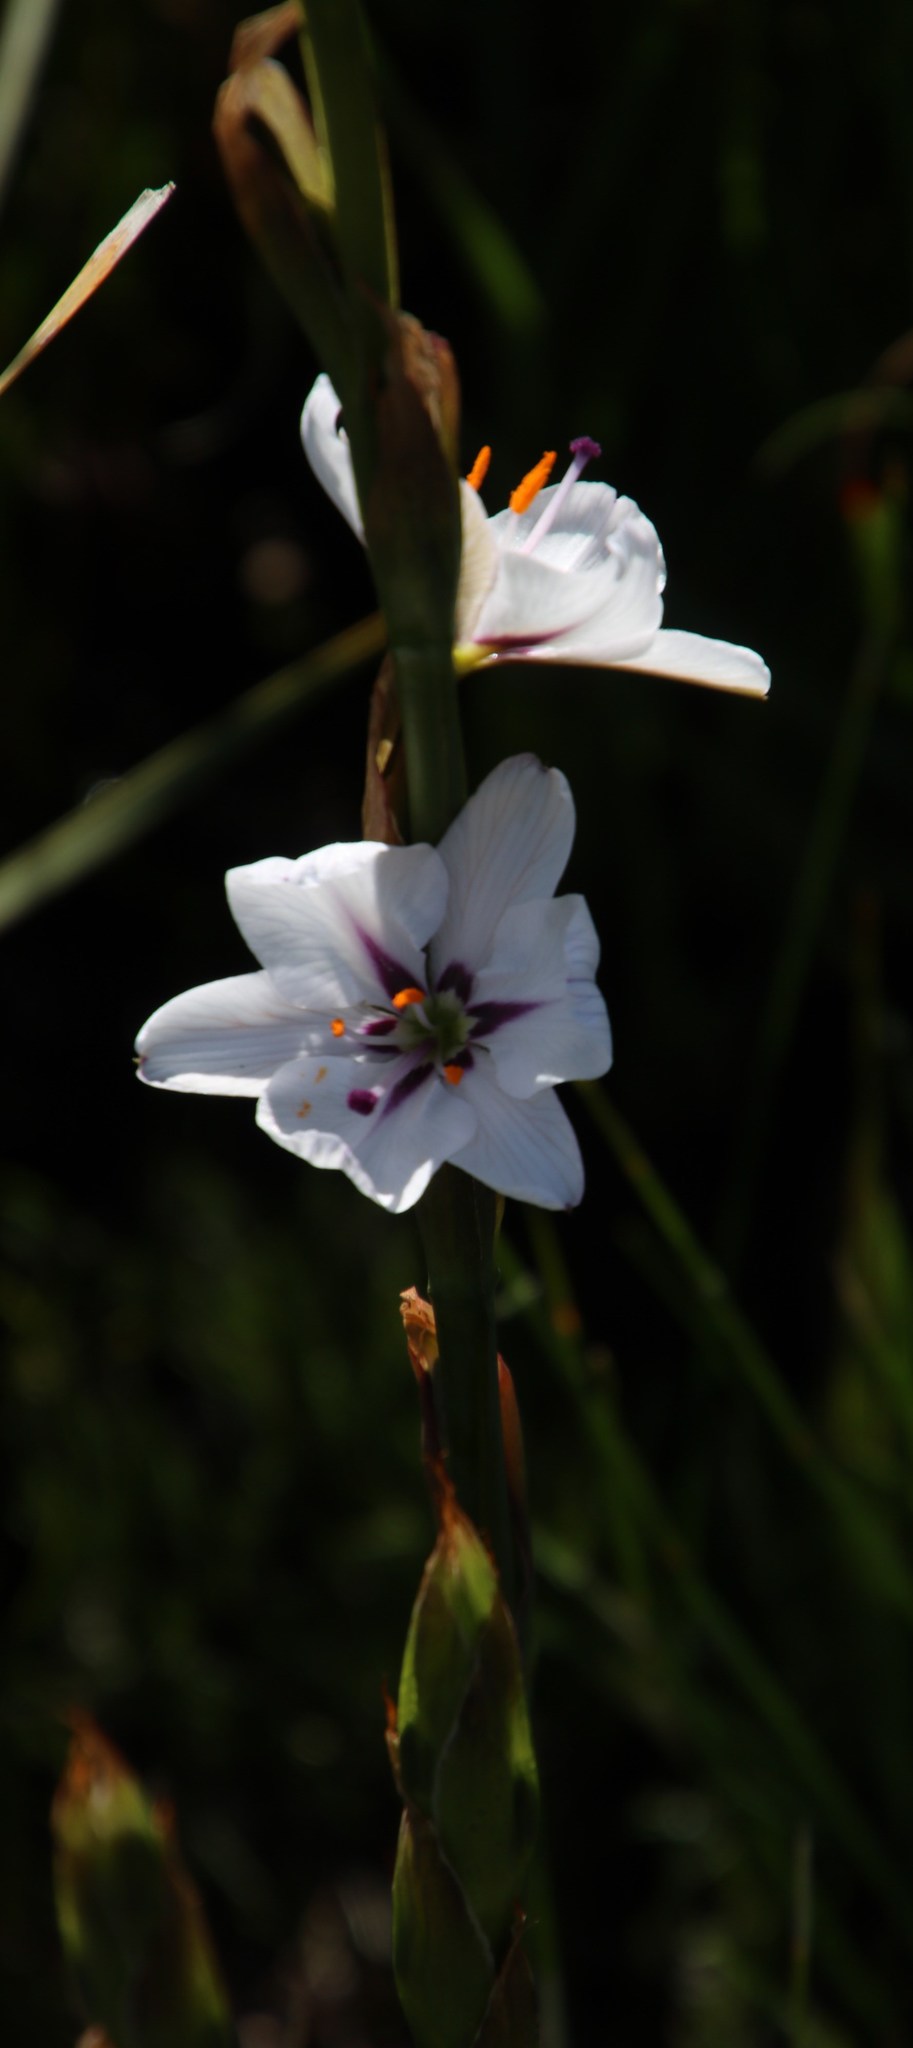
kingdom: Plantae
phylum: Tracheophyta
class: Liliopsida
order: Asparagales
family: Iridaceae
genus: Aristea
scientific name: Aristea spiralis
